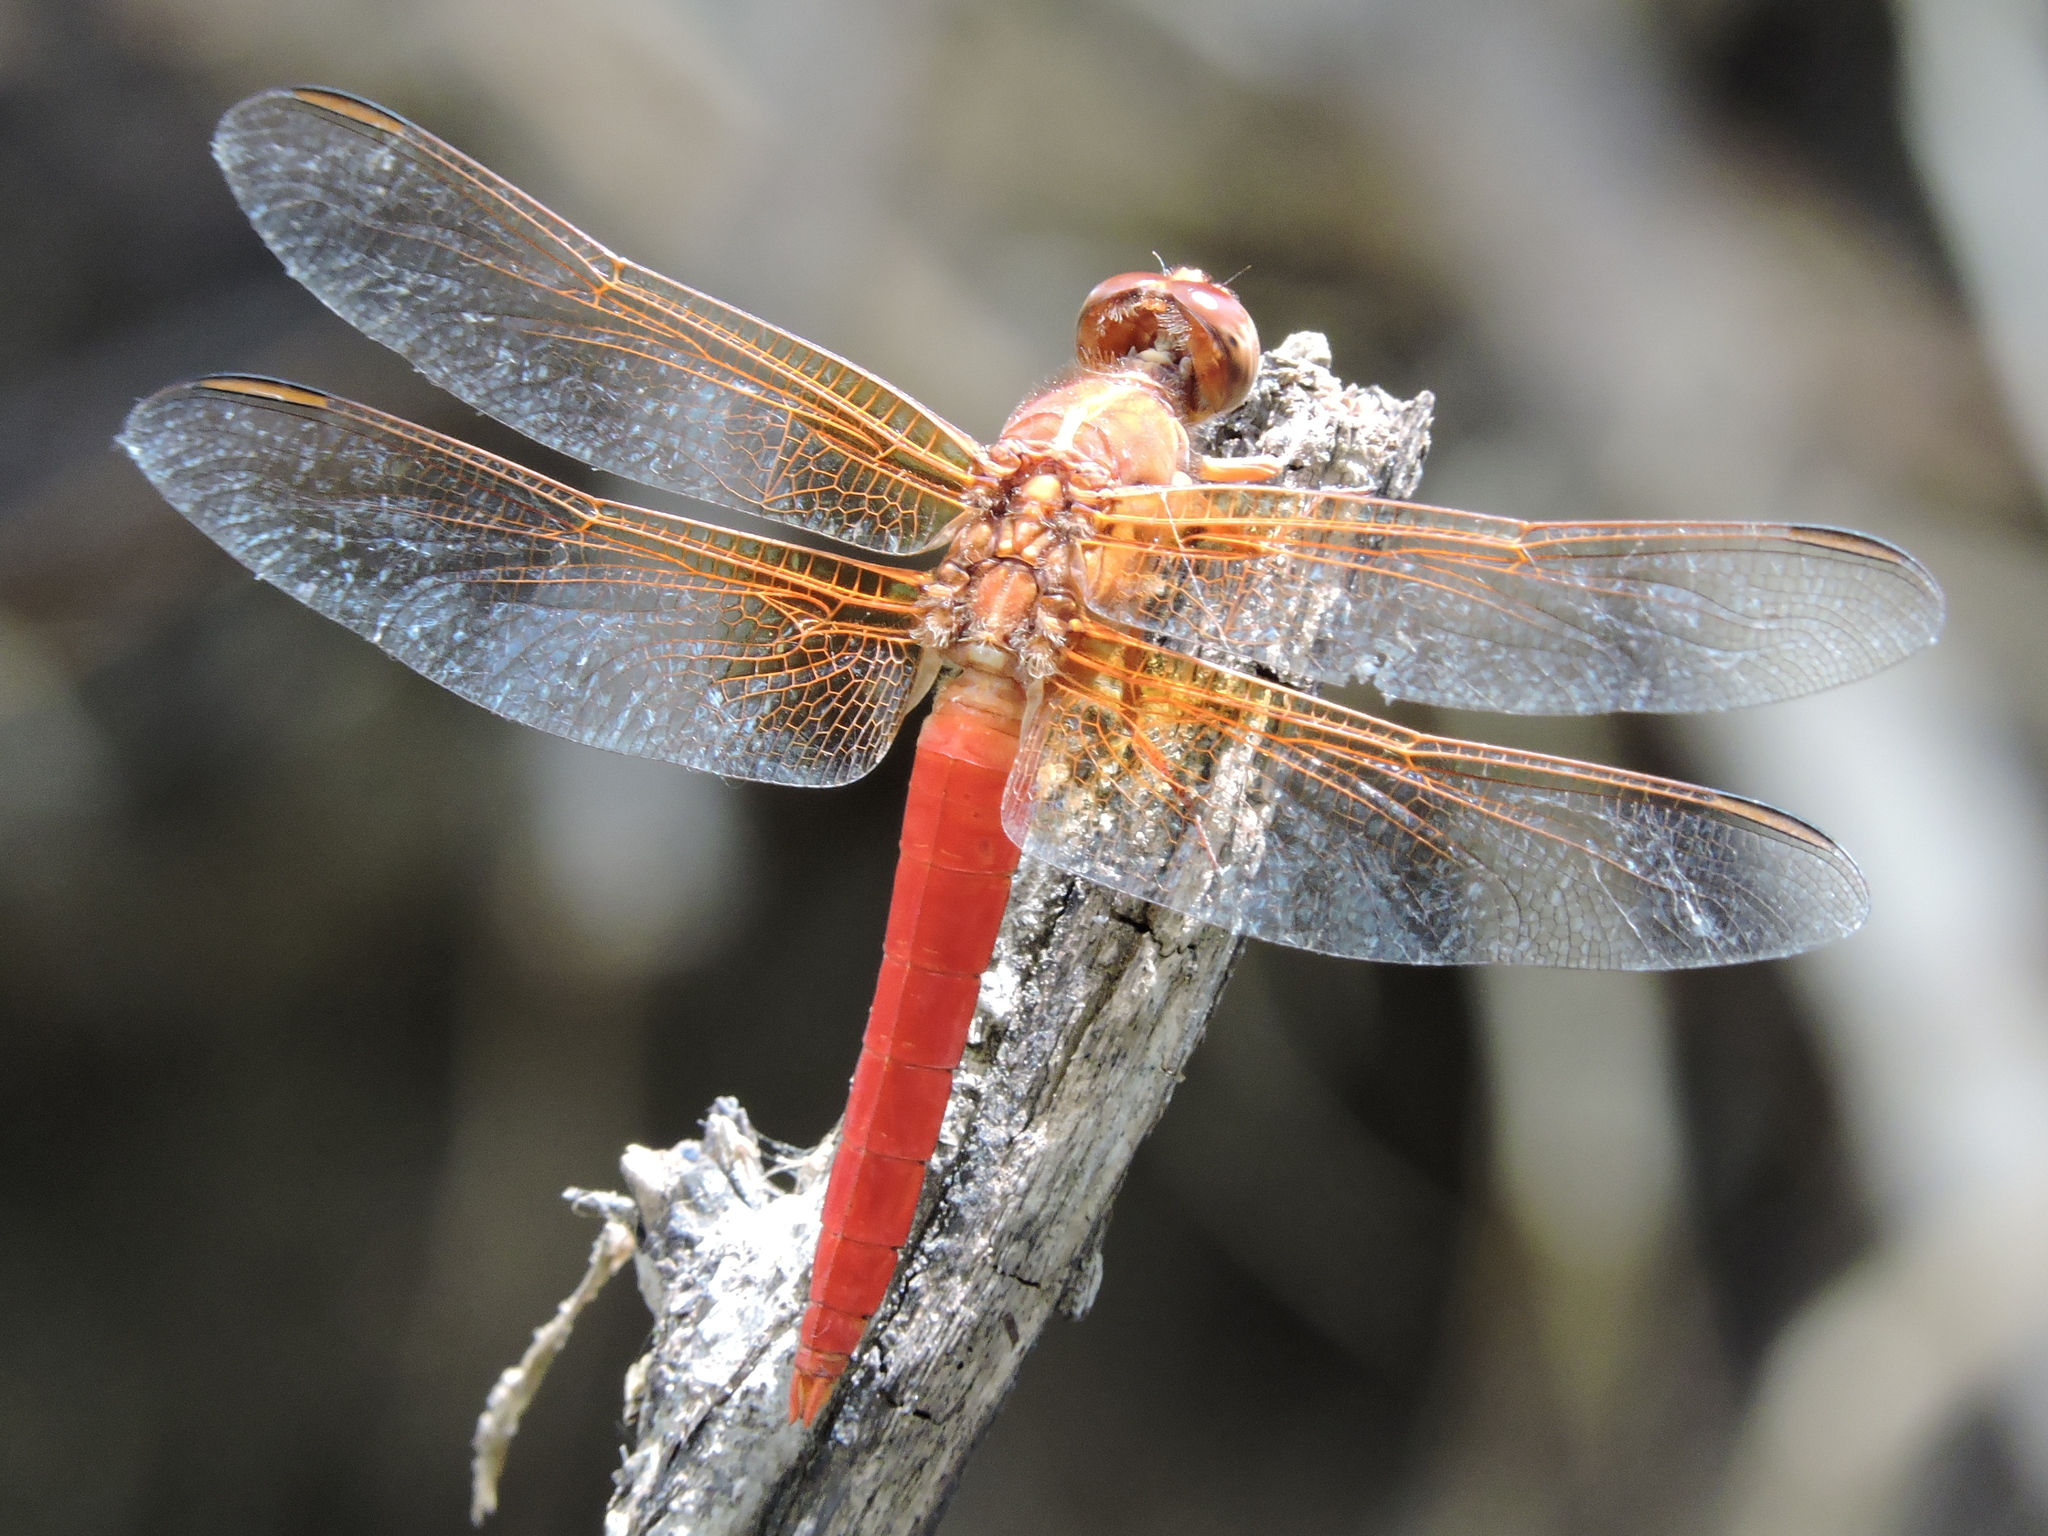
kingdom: Animalia
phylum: Arthropoda
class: Insecta
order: Odonata
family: Libellulidae
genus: Libellula
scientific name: Libellula croceipennis
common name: Neon skimmer
